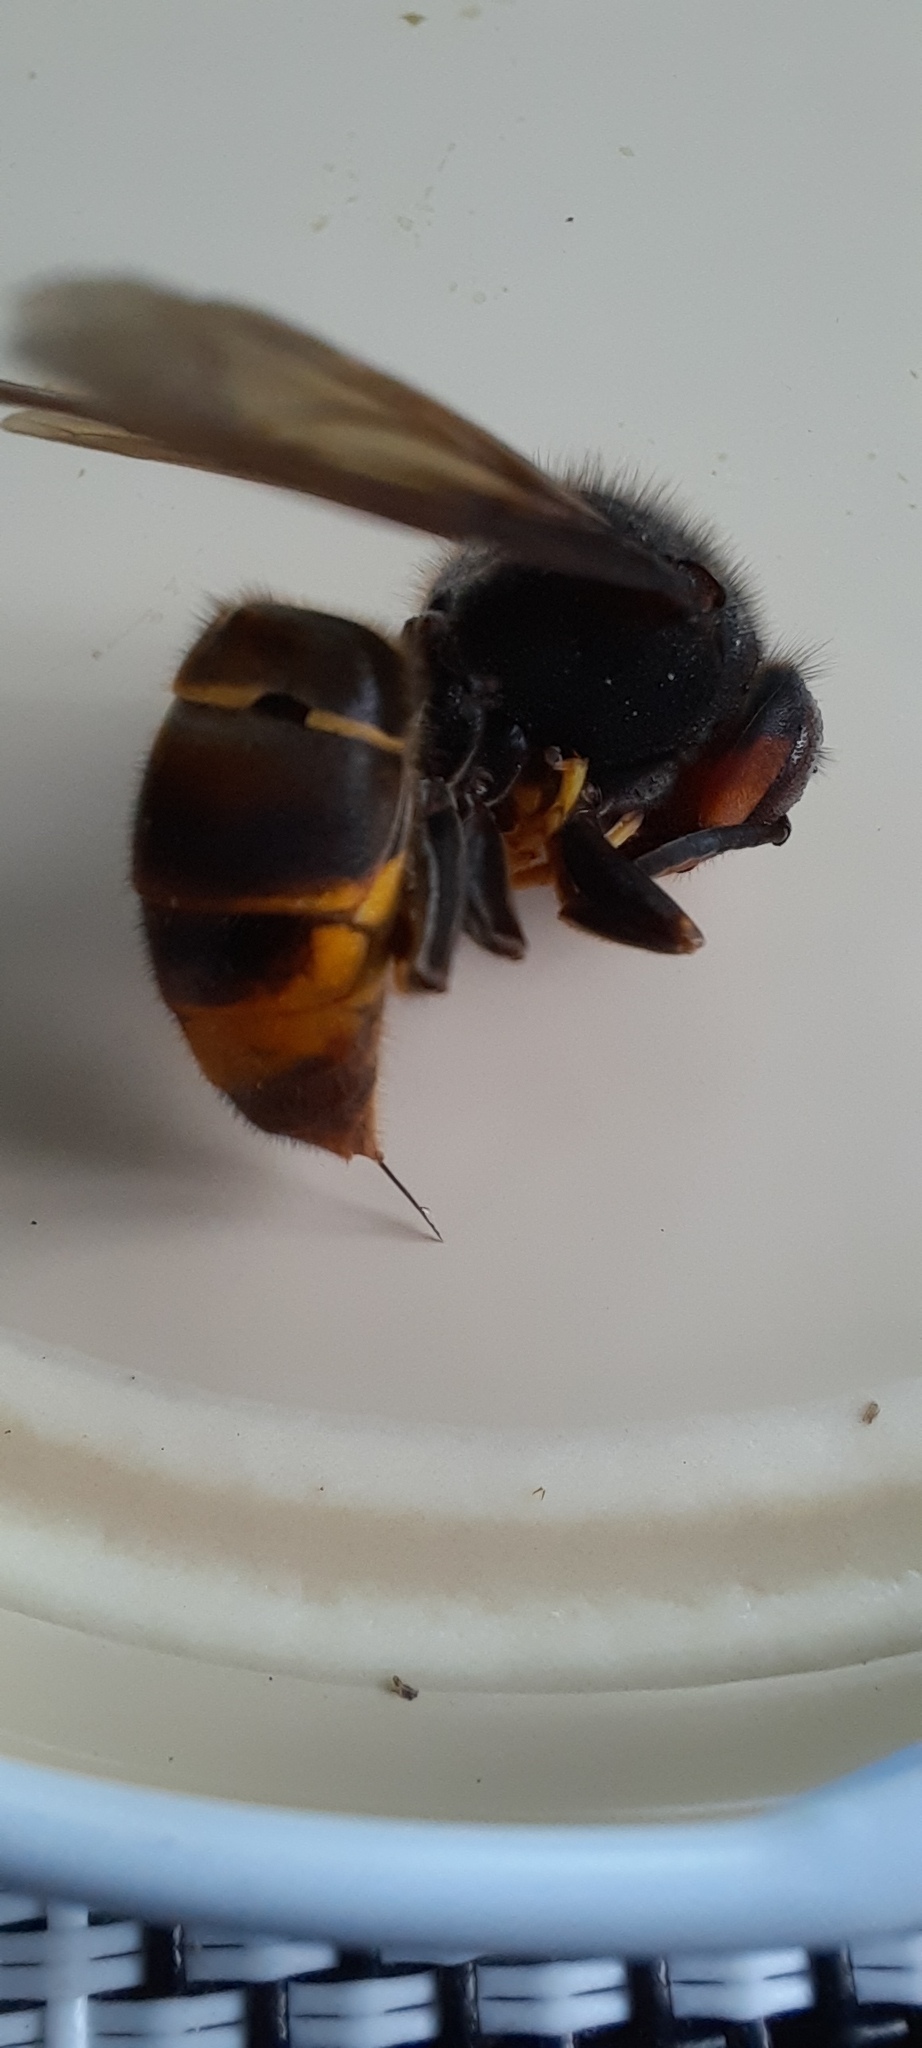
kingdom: Animalia
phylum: Arthropoda
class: Insecta
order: Hymenoptera
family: Vespidae
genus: Vespa
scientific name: Vespa velutina
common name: Asian hornet
